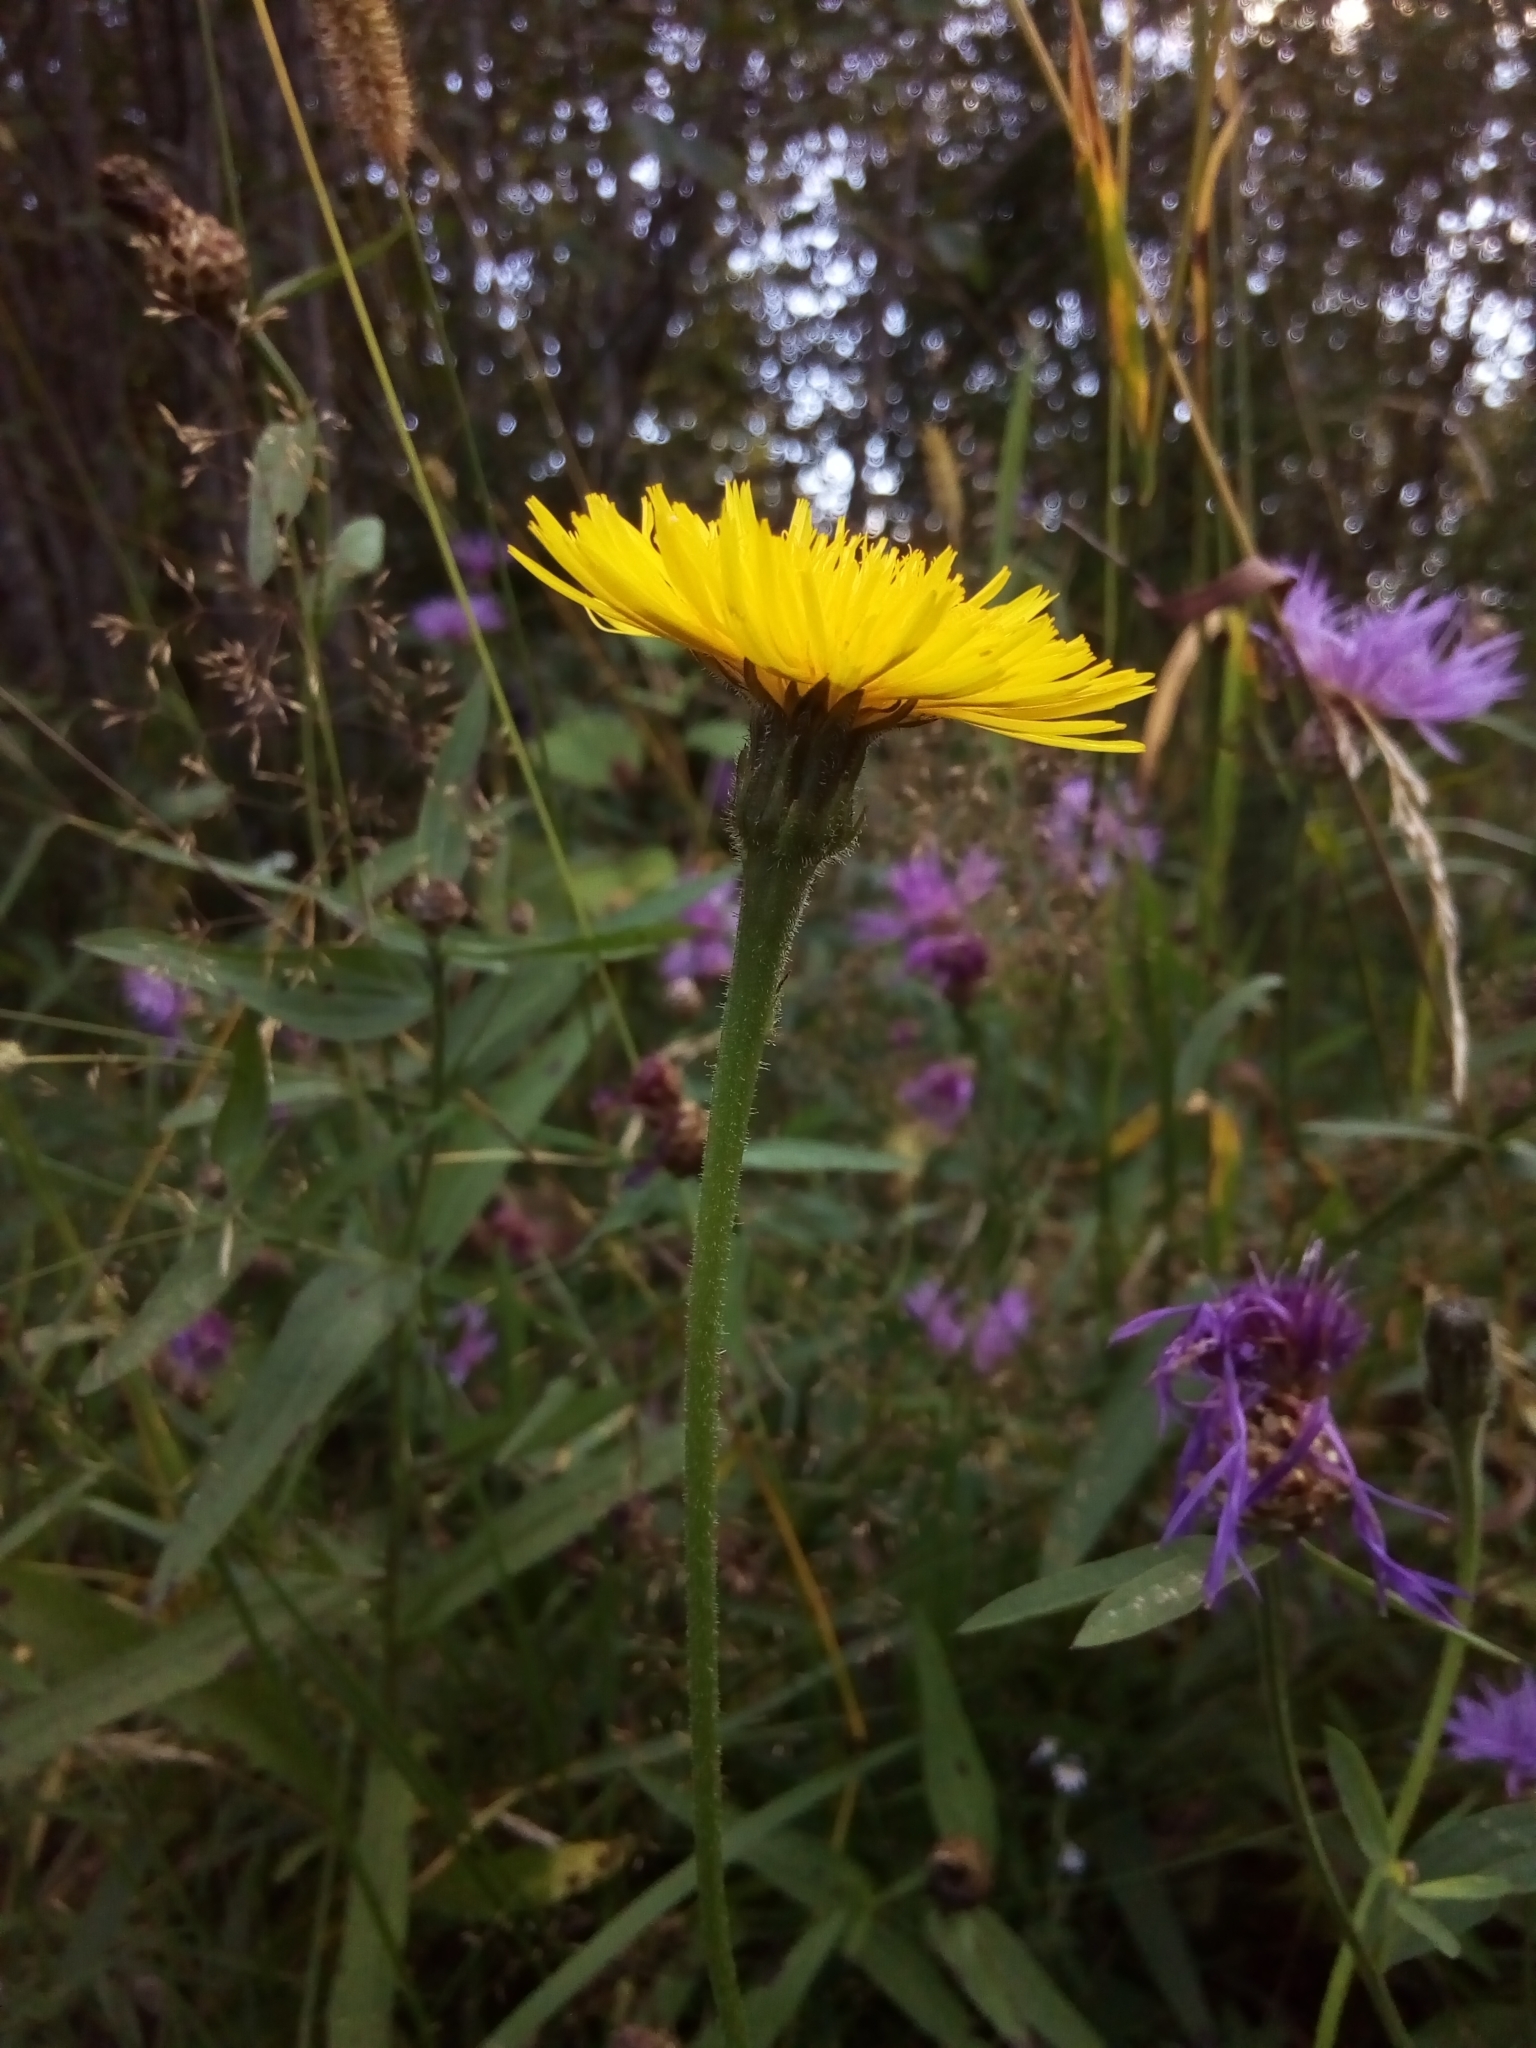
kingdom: Plantae
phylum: Tracheophyta
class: Magnoliopsida
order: Asterales
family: Asteraceae
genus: Leontodon
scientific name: Leontodon hispidus
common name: Rough hawkbit
